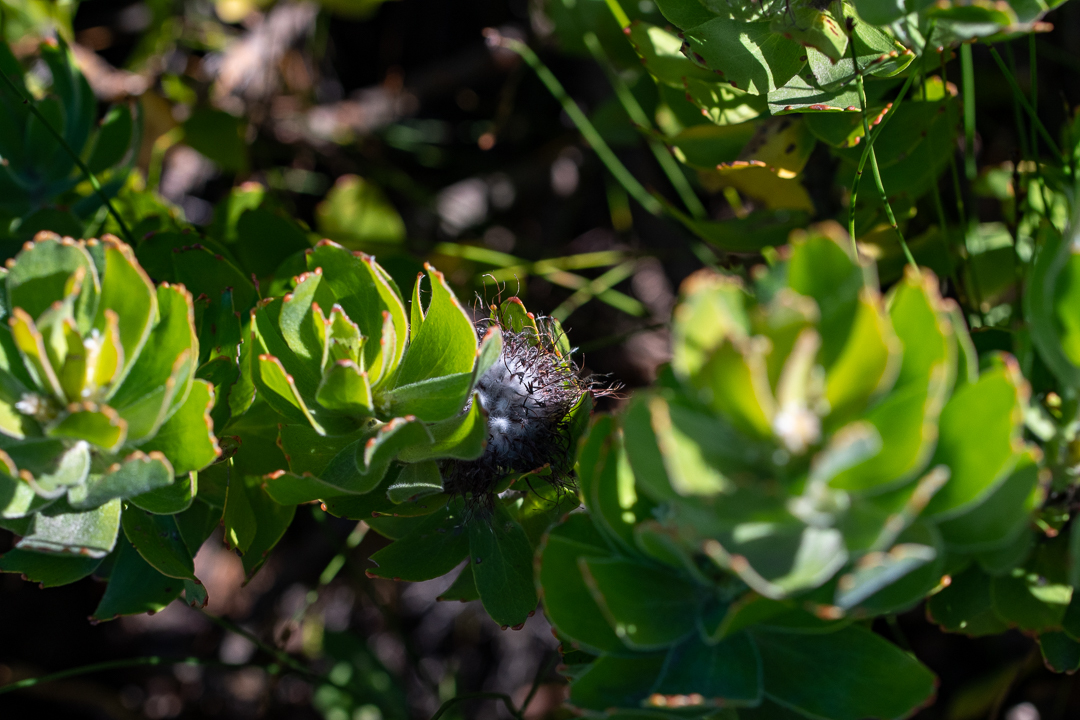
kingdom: Plantae
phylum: Tracheophyta
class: Magnoliopsida
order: Proteales
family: Proteaceae
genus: Leucospermum
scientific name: Leucospermum oleifolium
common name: Matches
